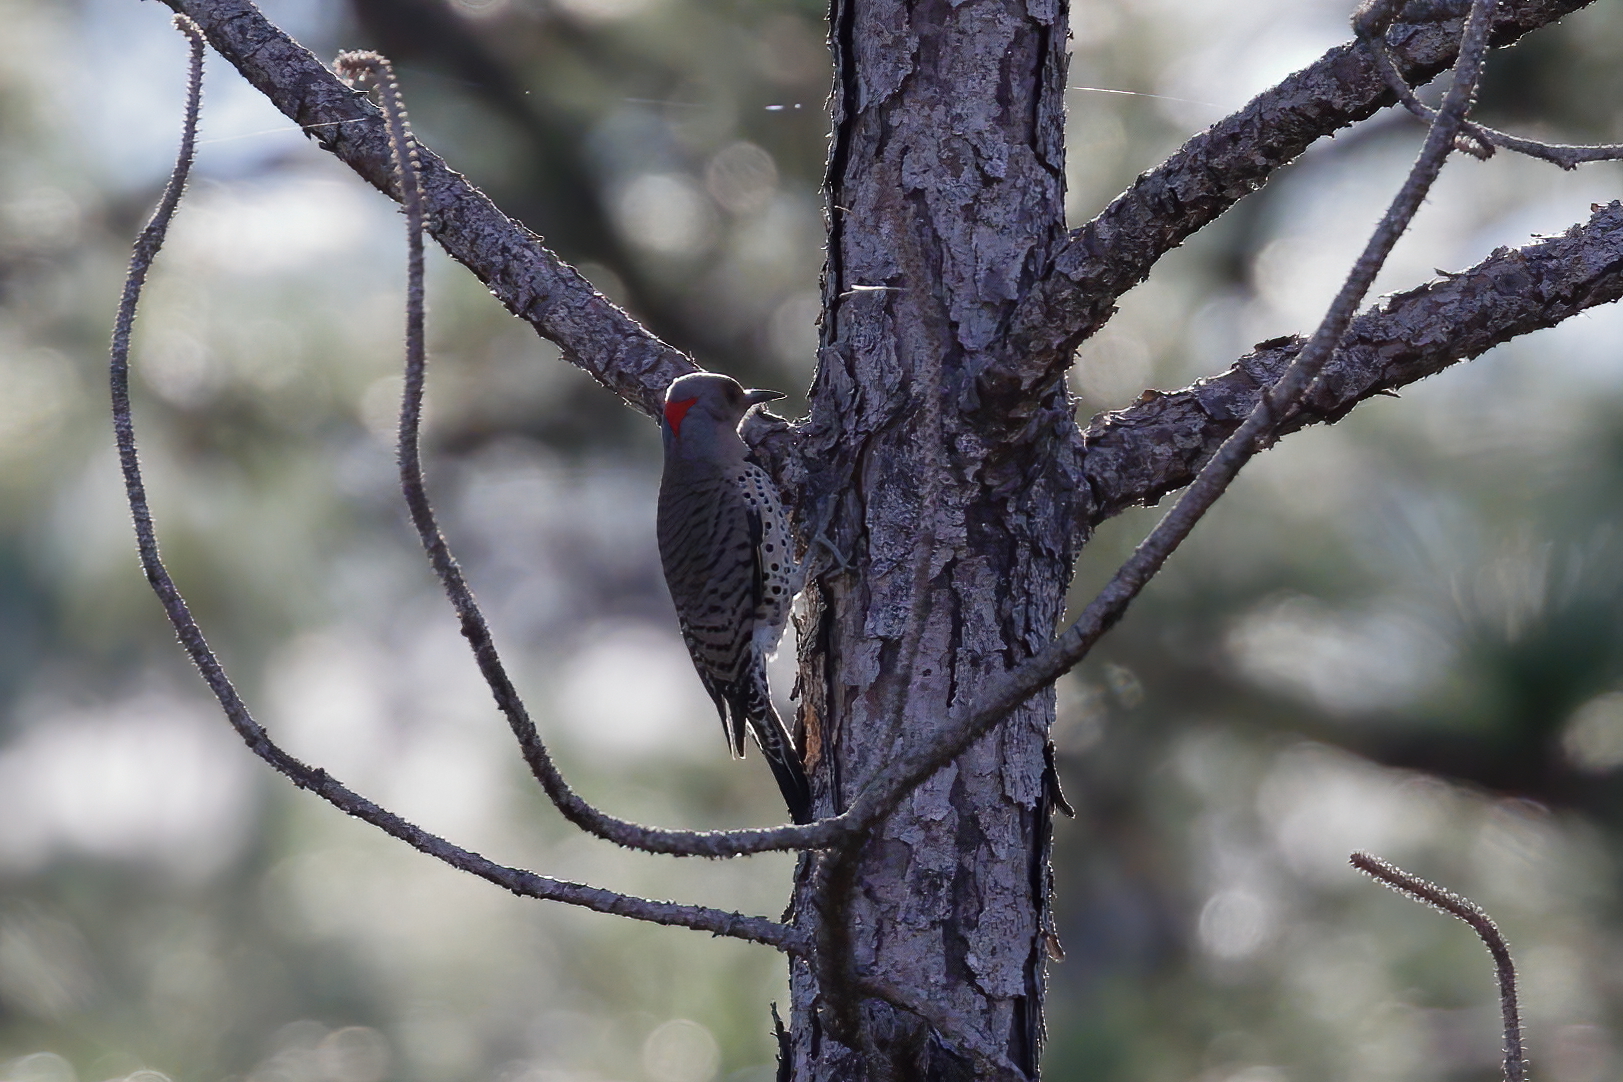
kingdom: Animalia
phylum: Chordata
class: Aves
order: Piciformes
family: Picidae
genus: Colaptes
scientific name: Colaptes auratus
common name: Northern flicker
